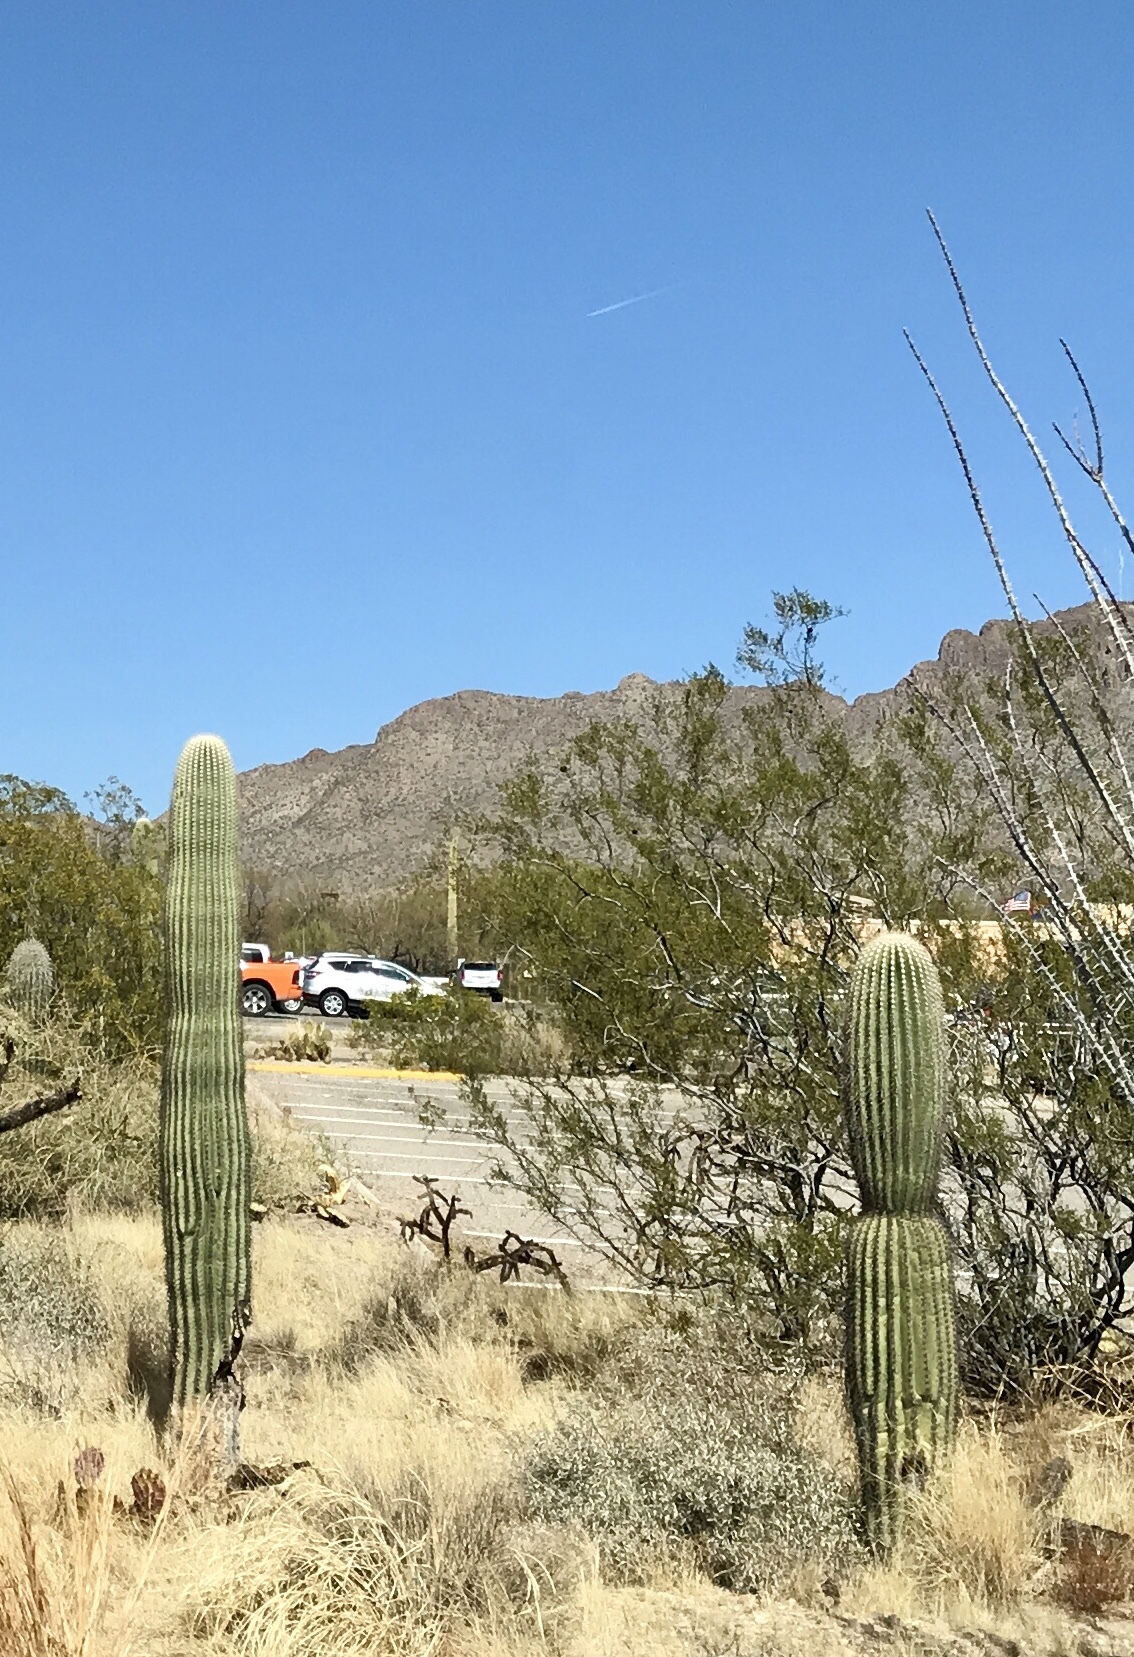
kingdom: Plantae
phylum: Tracheophyta
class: Magnoliopsida
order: Caryophyllales
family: Cactaceae
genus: Carnegiea
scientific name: Carnegiea gigantea
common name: Saguaro
